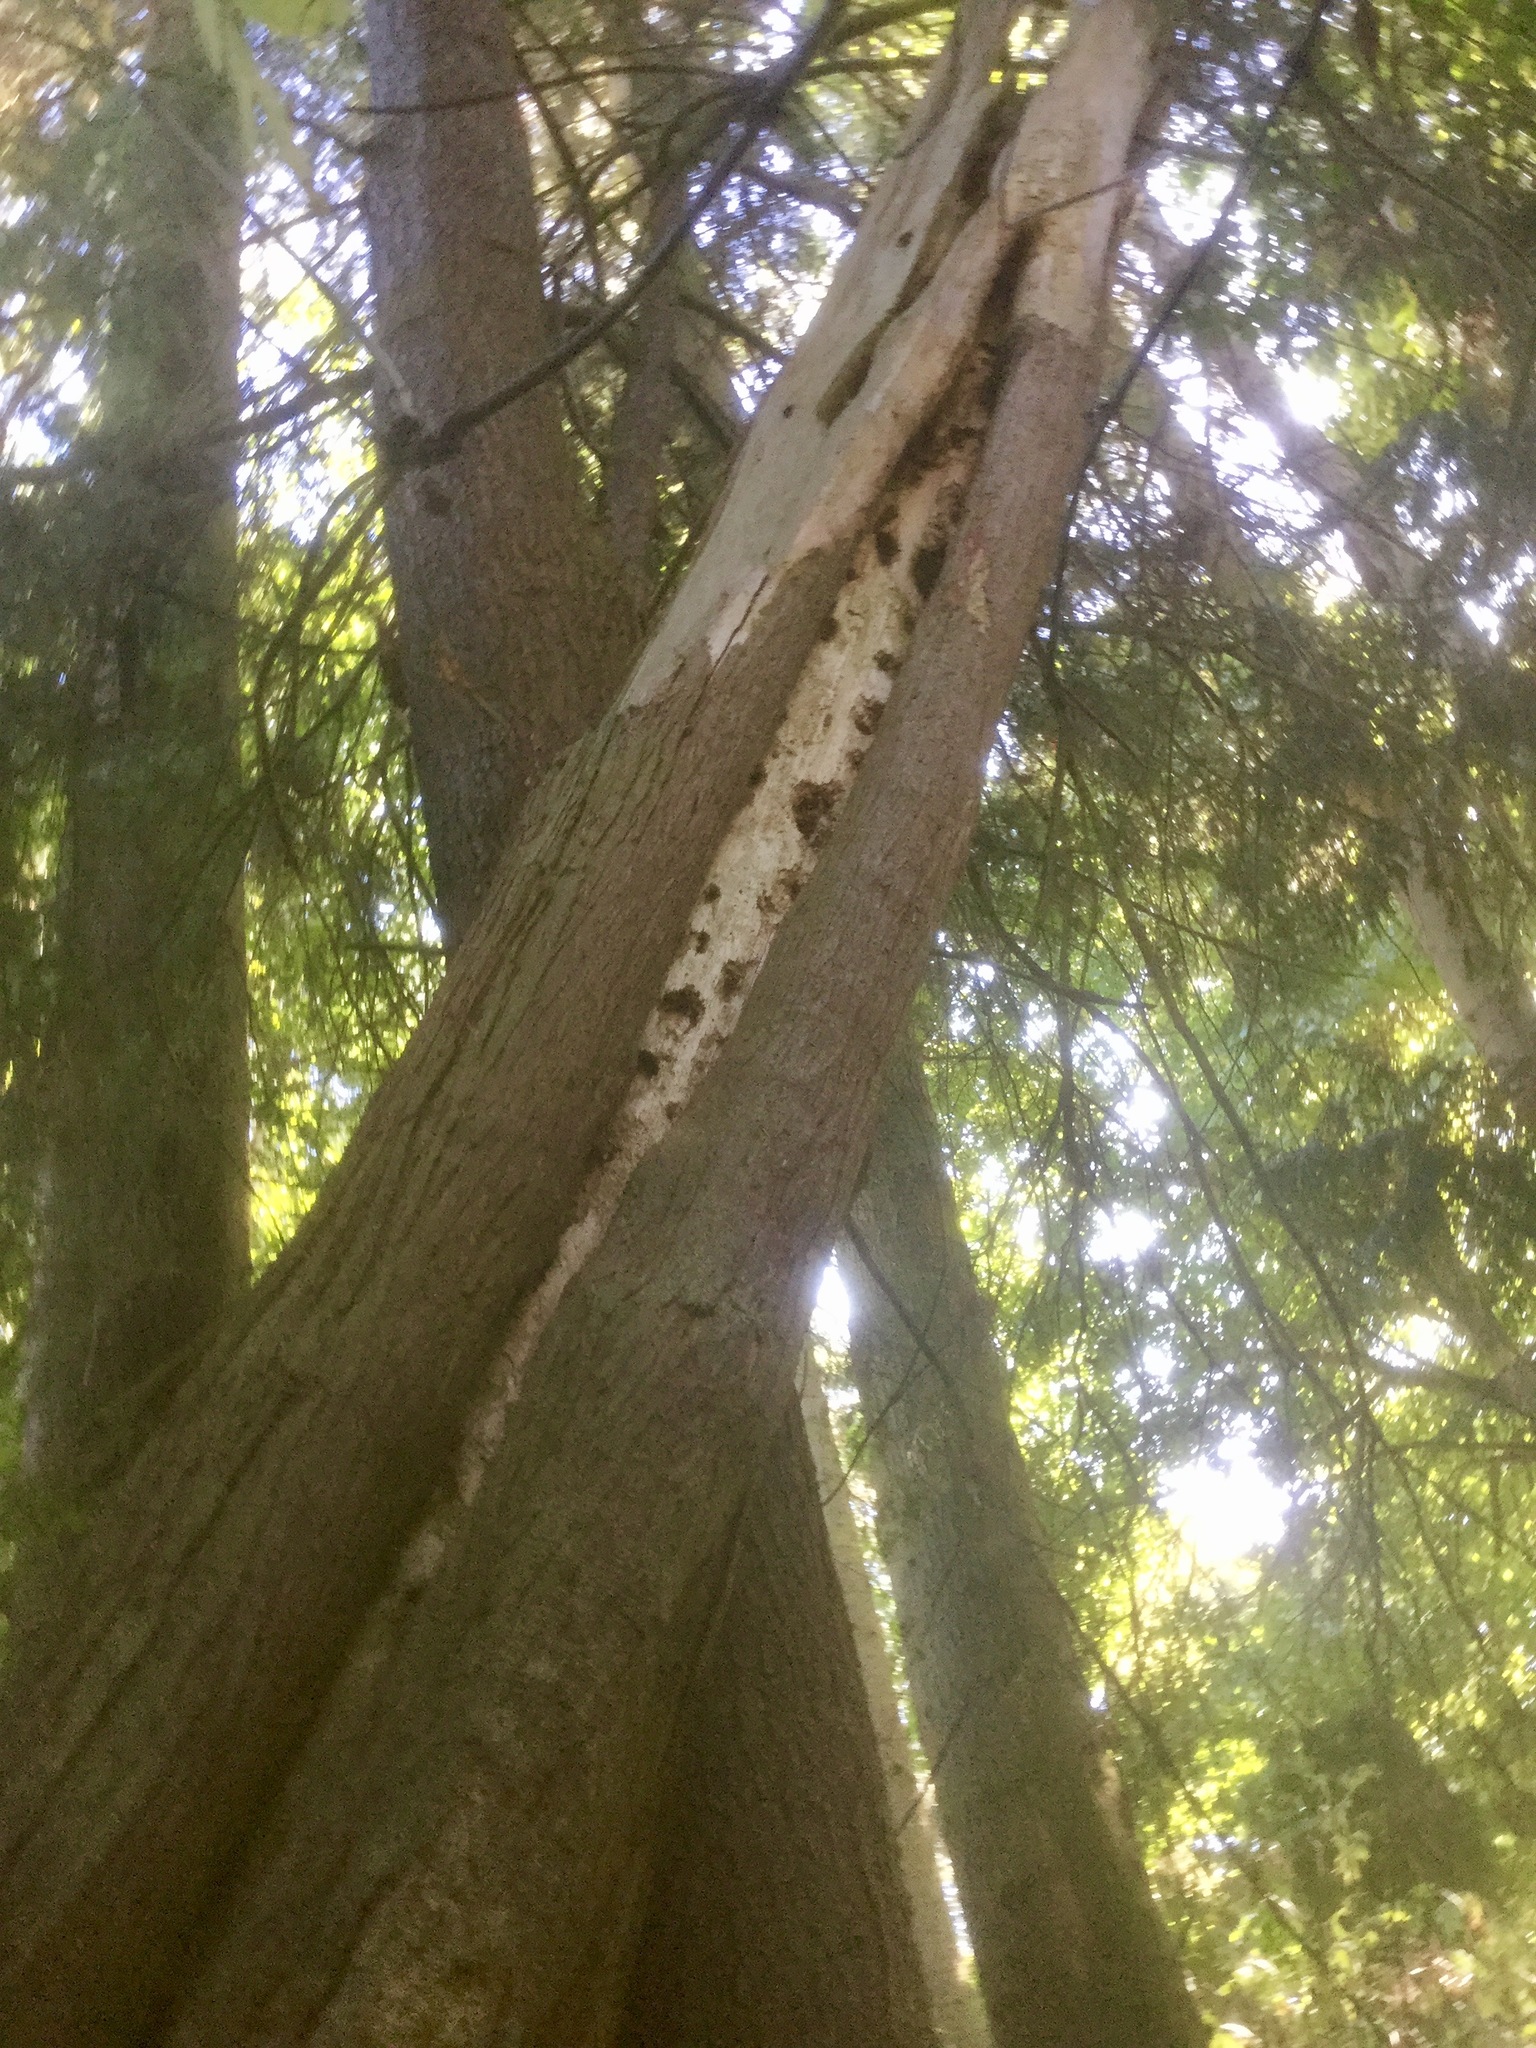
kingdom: Animalia
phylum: Chordata
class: Aves
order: Piciformes
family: Picidae
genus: Dryocopus
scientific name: Dryocopus pileatus
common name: Pileated woodpecker
